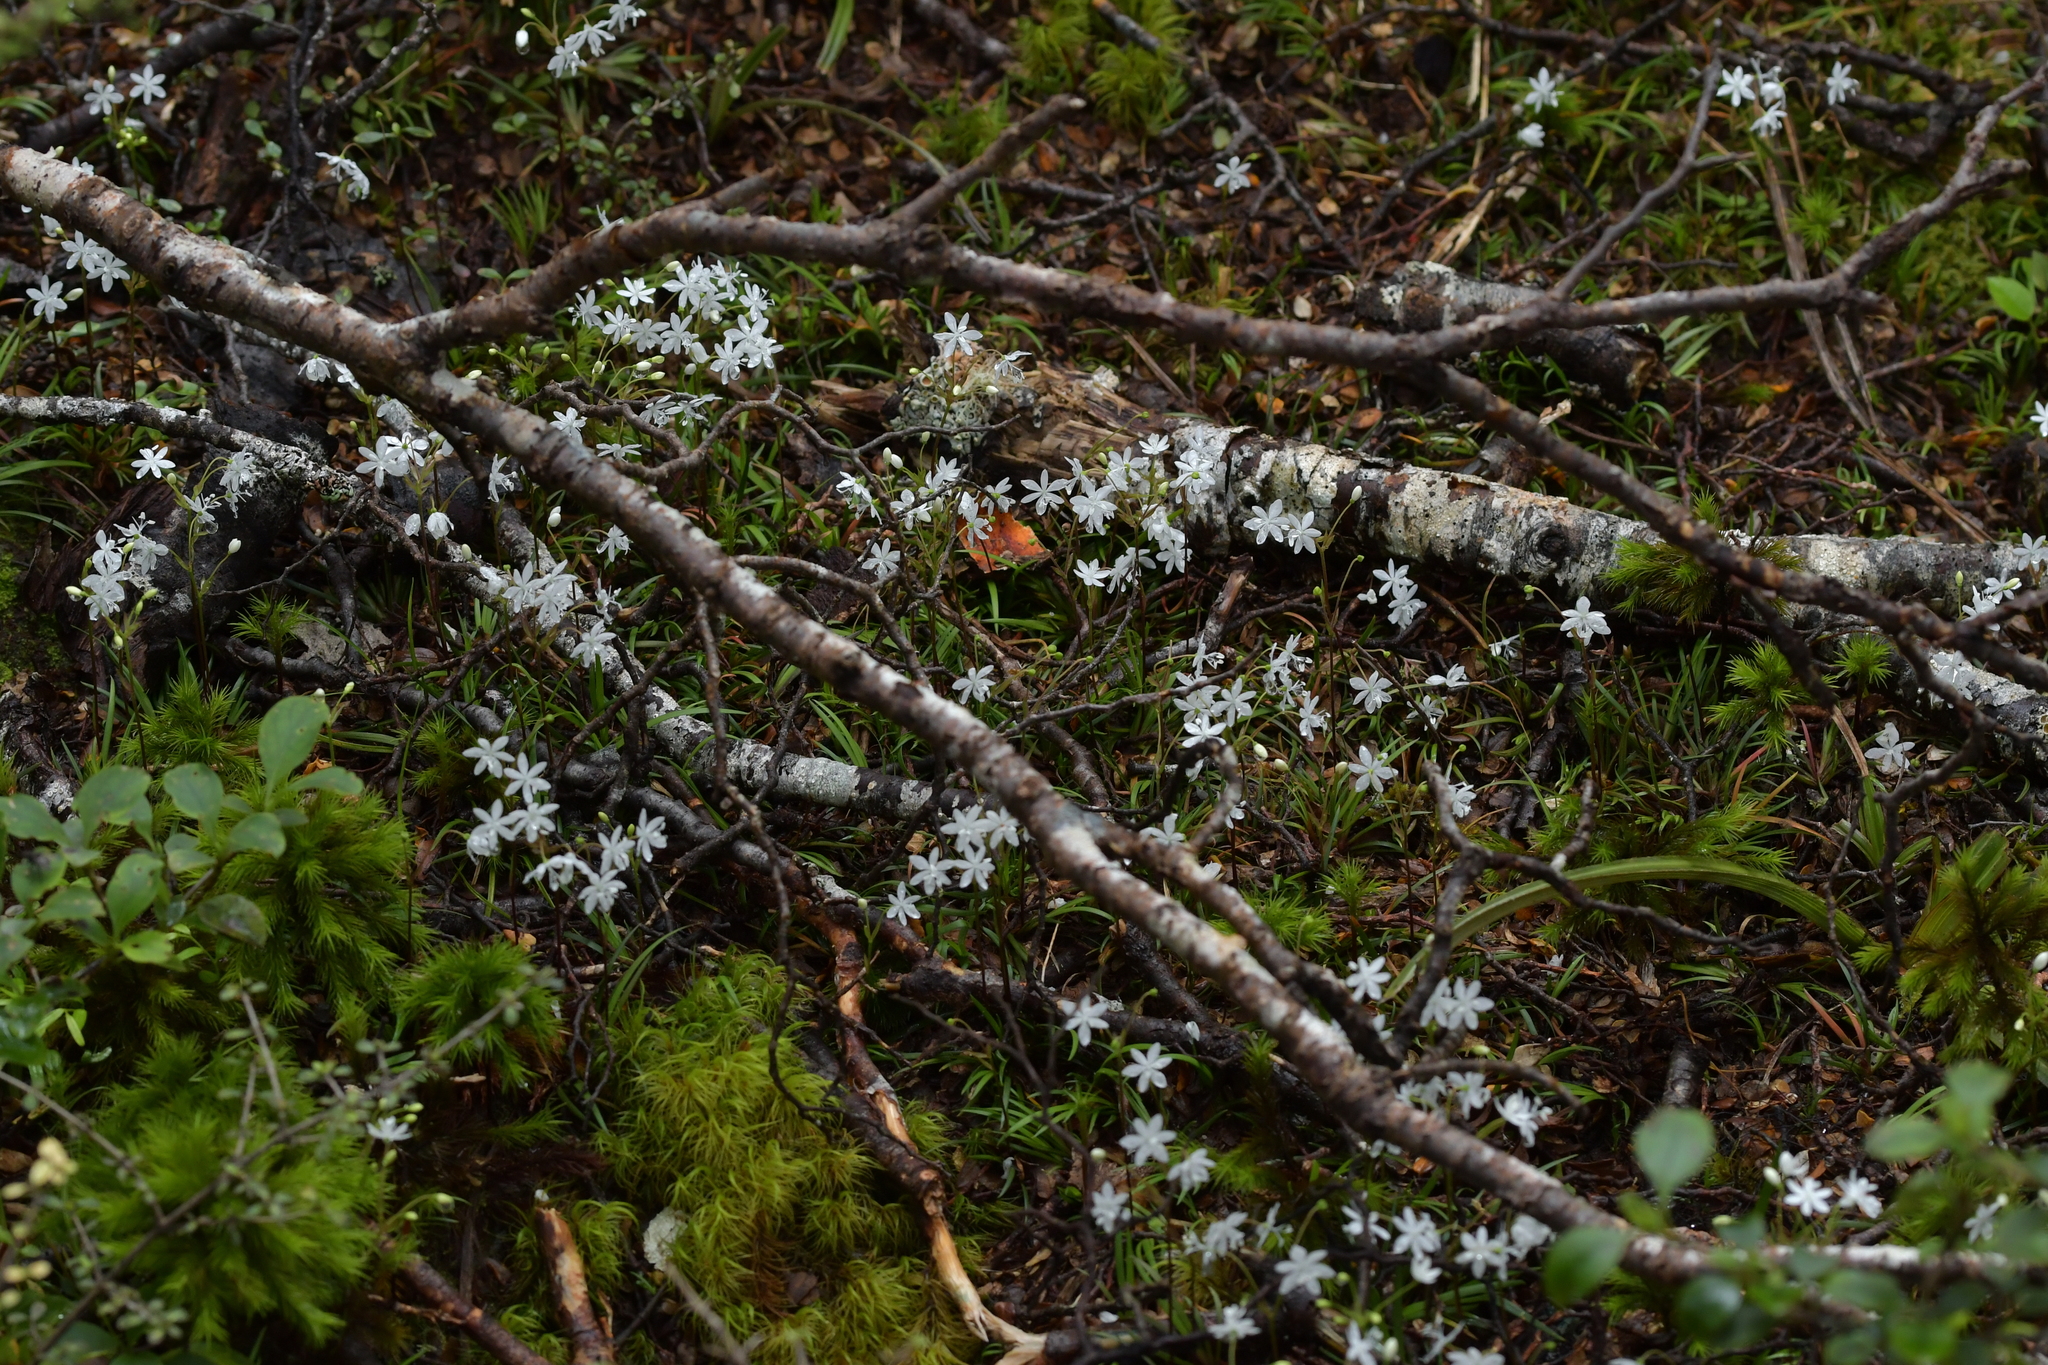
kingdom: Plantae
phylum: Tracheophyta
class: Liliopsida
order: Asparagales
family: Iridaceae
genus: Libertia
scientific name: Libertia micrantha
